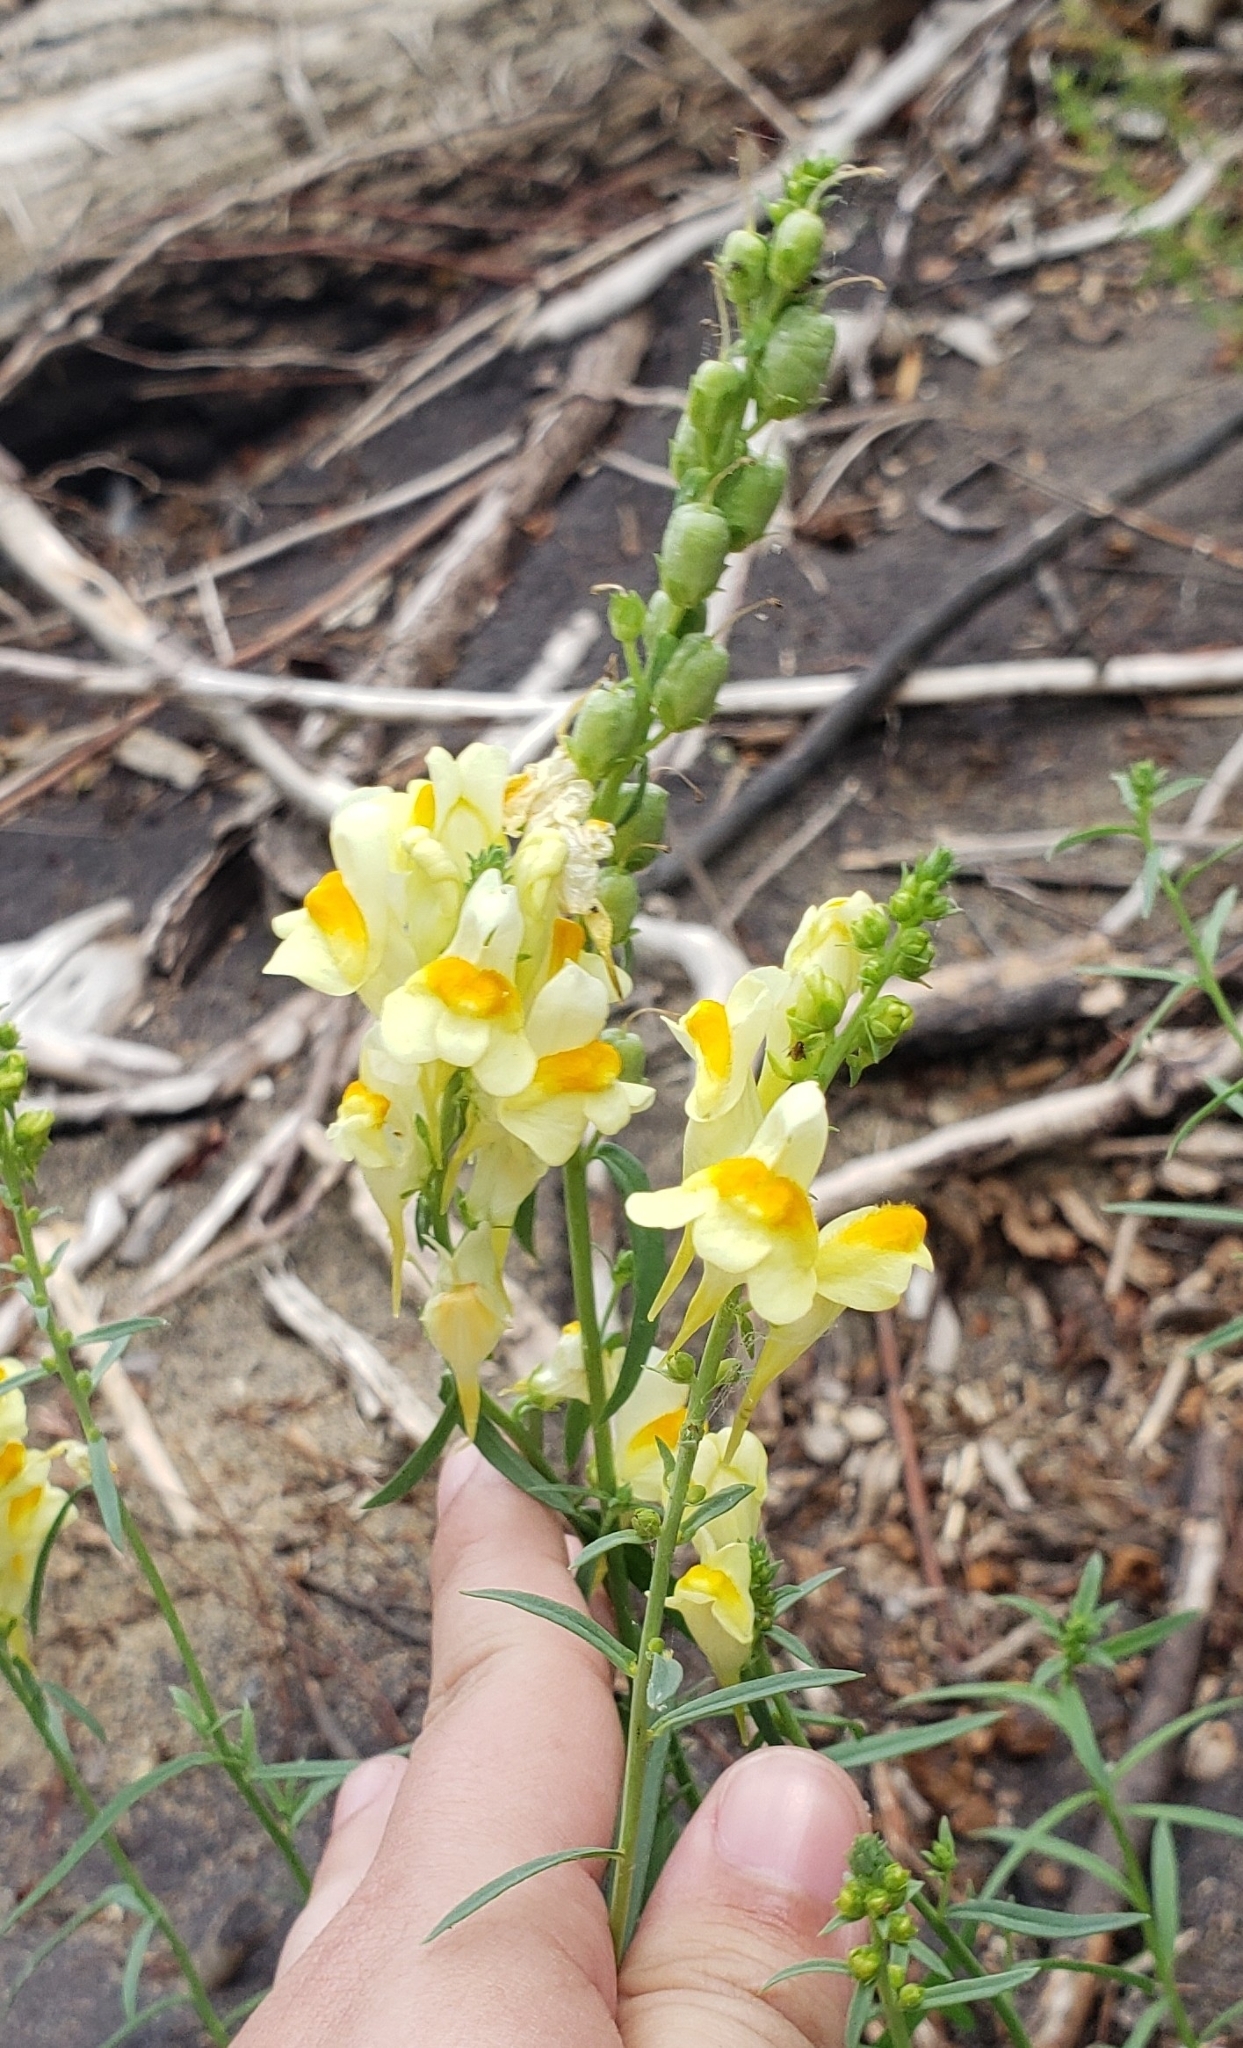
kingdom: Plantae
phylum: Tracheophyta
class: Magnoliopsida
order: Lamiales
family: Plantaginaceae
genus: Linaria
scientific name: Linaria vulgaris
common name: Butter and eggs
